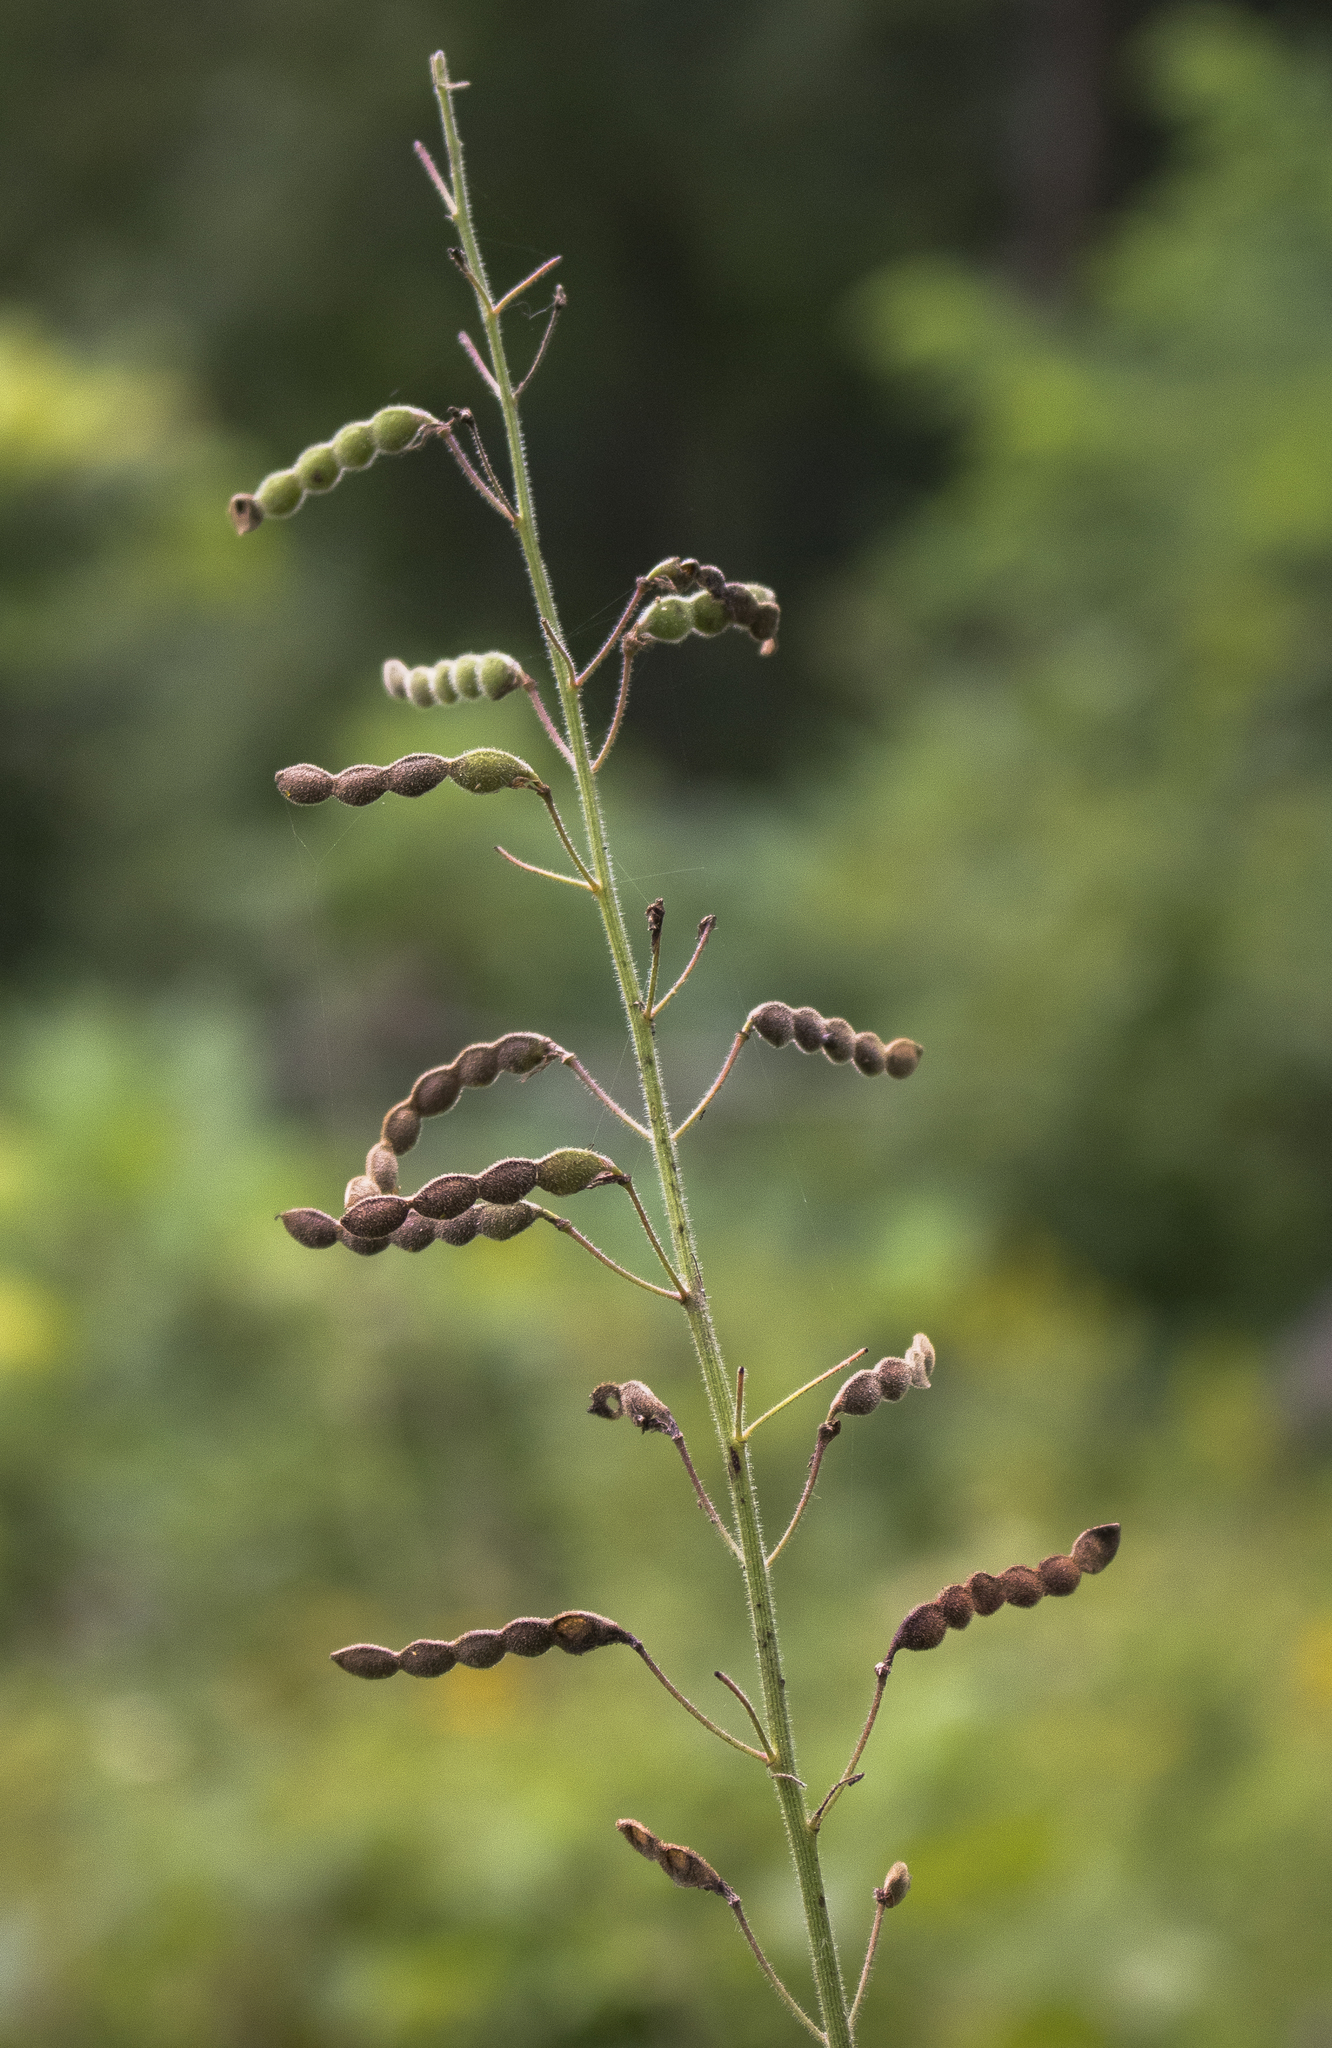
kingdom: Plantae
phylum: Tracheophyta
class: Magnoliopsida
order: Fabales
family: Fabaceae
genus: Desmodium
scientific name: Desmodium illinoense
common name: Illinois tick-clover
